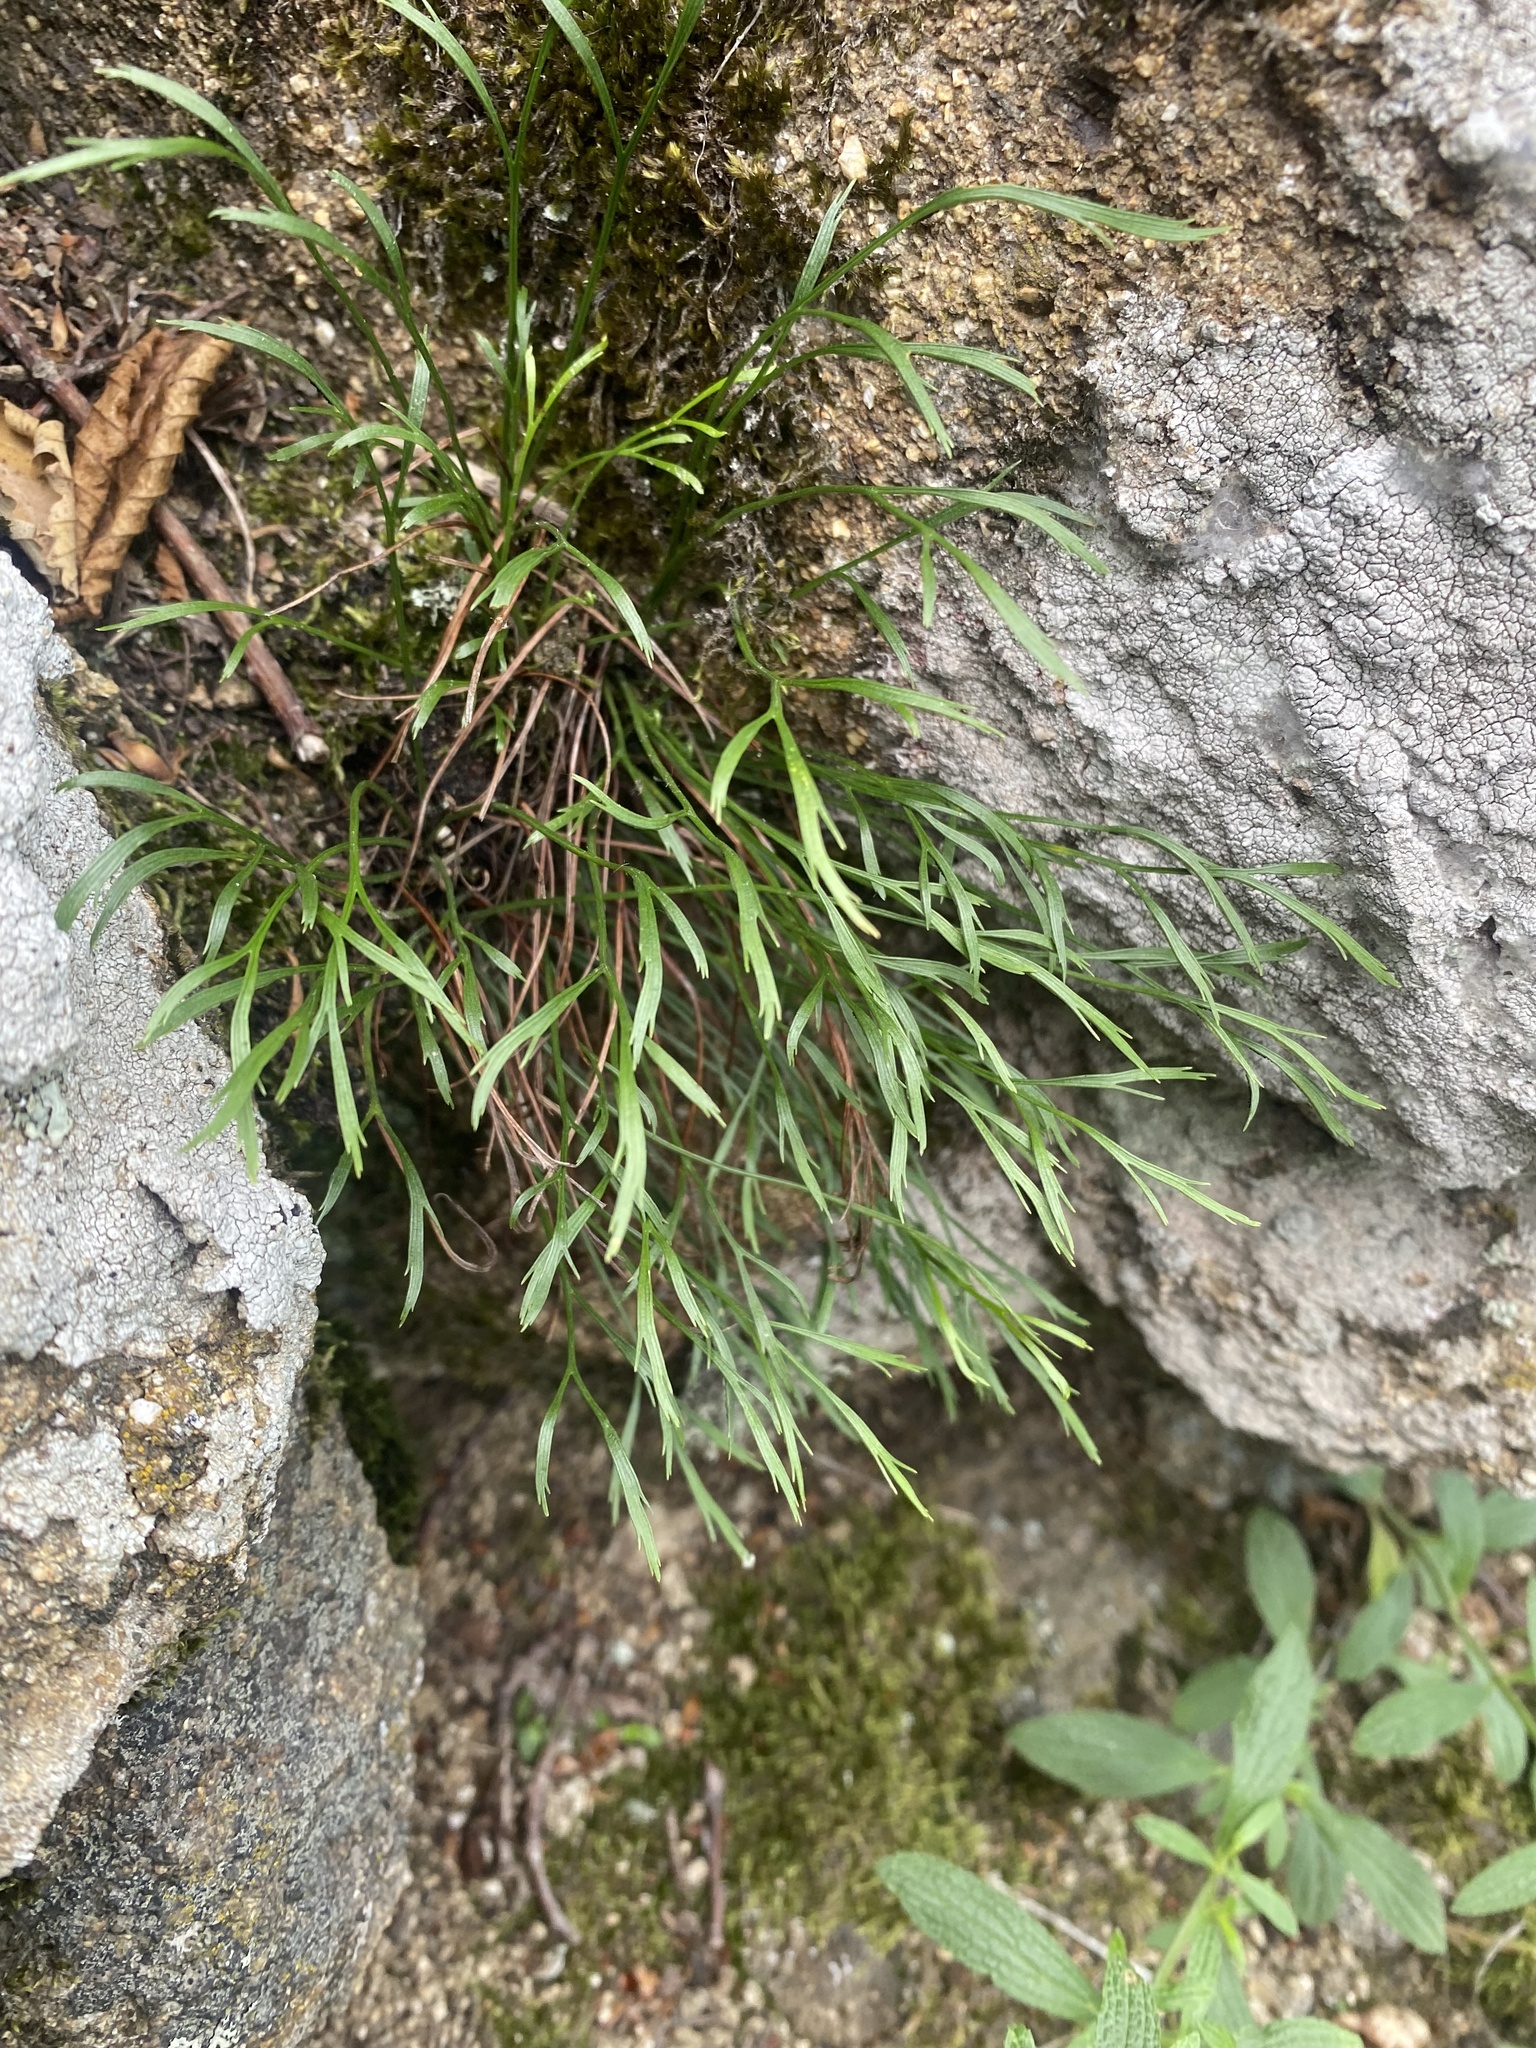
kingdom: Plantae
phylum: Tracheophyta
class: Polypodiopsida
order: Polypodiales
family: Aspleniaceae
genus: Asplenium
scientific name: Asplenium septentrionale
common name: Forked spleenwort
